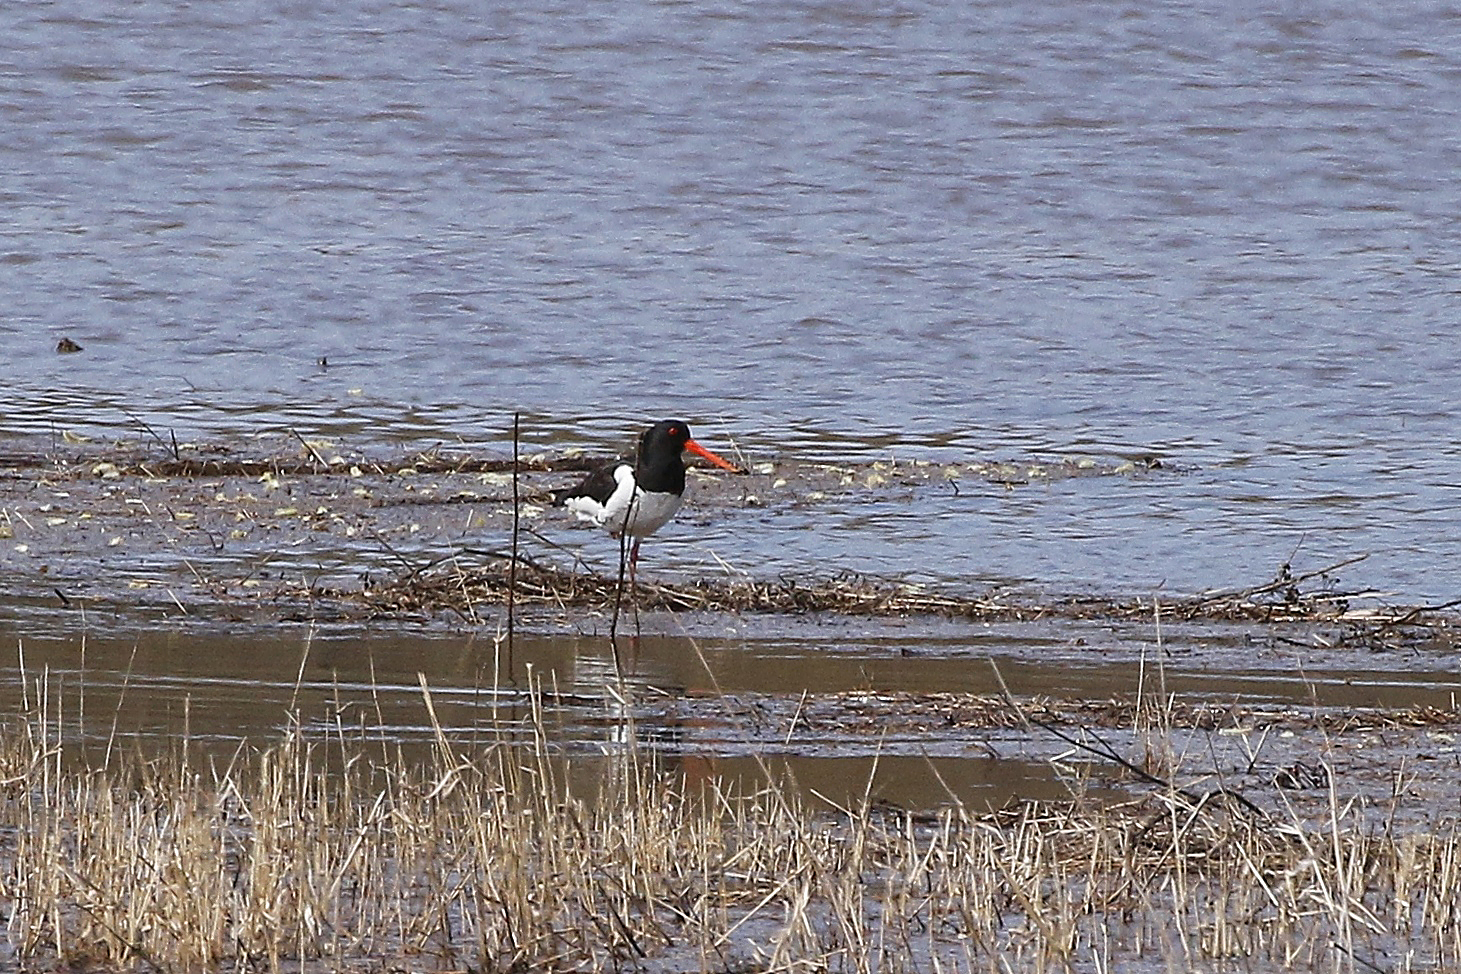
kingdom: Animalia
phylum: Chordata
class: Aves
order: Charadriiformes
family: Haematopodidae
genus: Haematopus
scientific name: Haematopus ostralegus
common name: Eurasian oystercatcher
